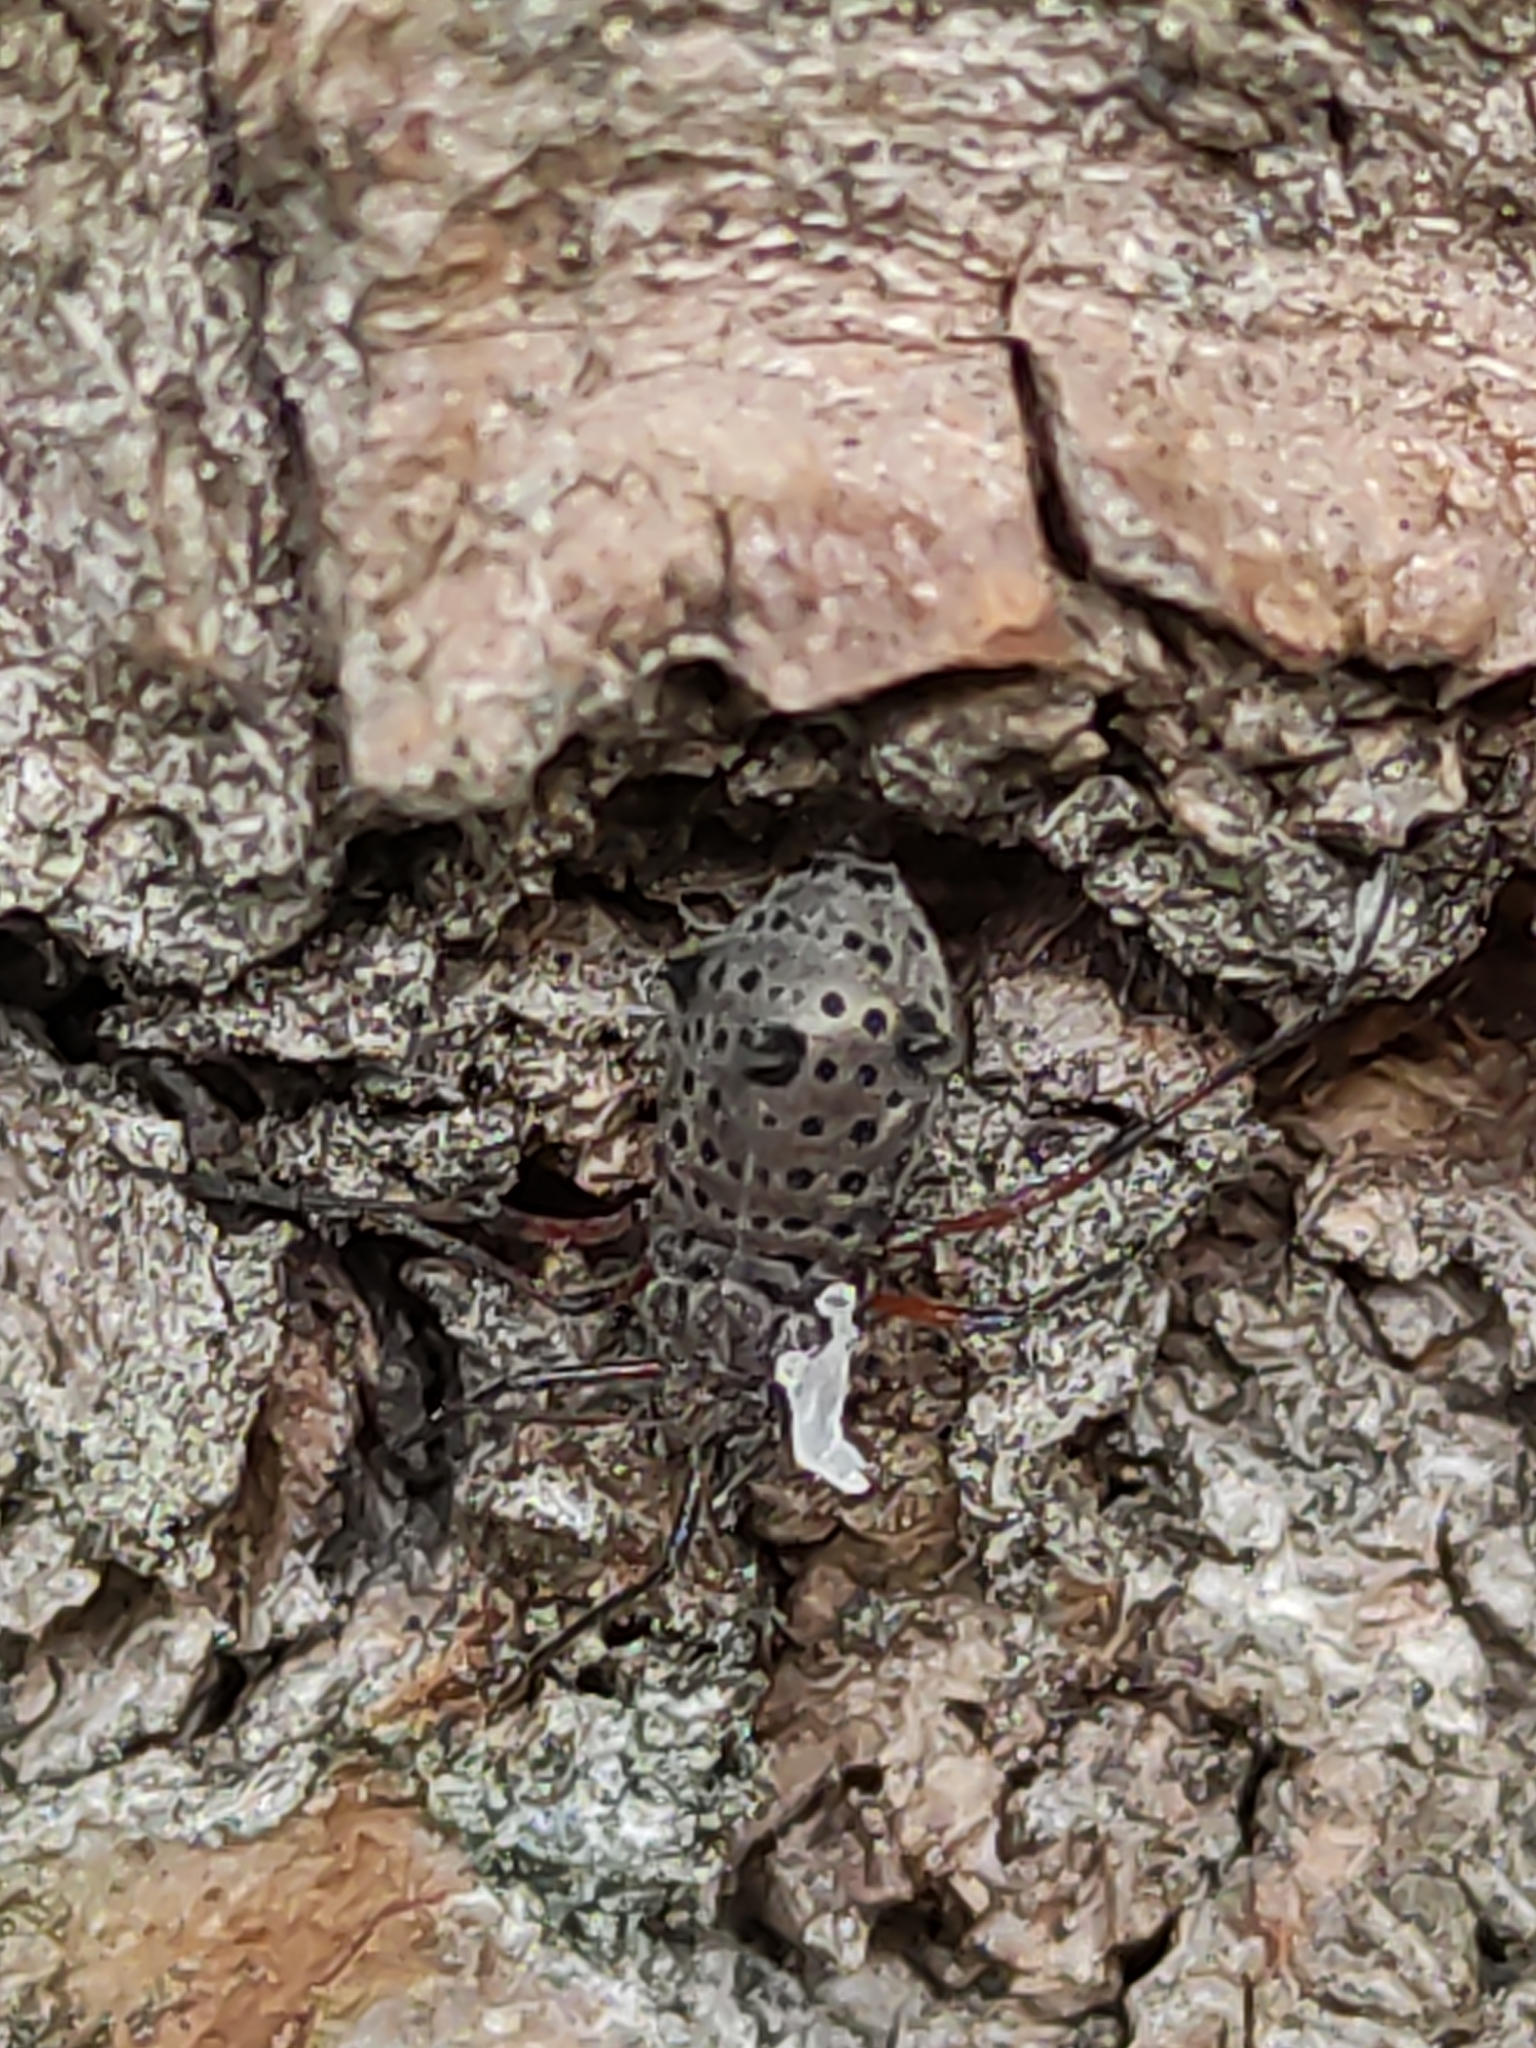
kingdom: Animalia
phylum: Arthropoda
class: Insecta
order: Hemiptera
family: Aphididae
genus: Tuberolachnus
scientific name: Tuberolachnus salignus
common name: Giant willow aphid
